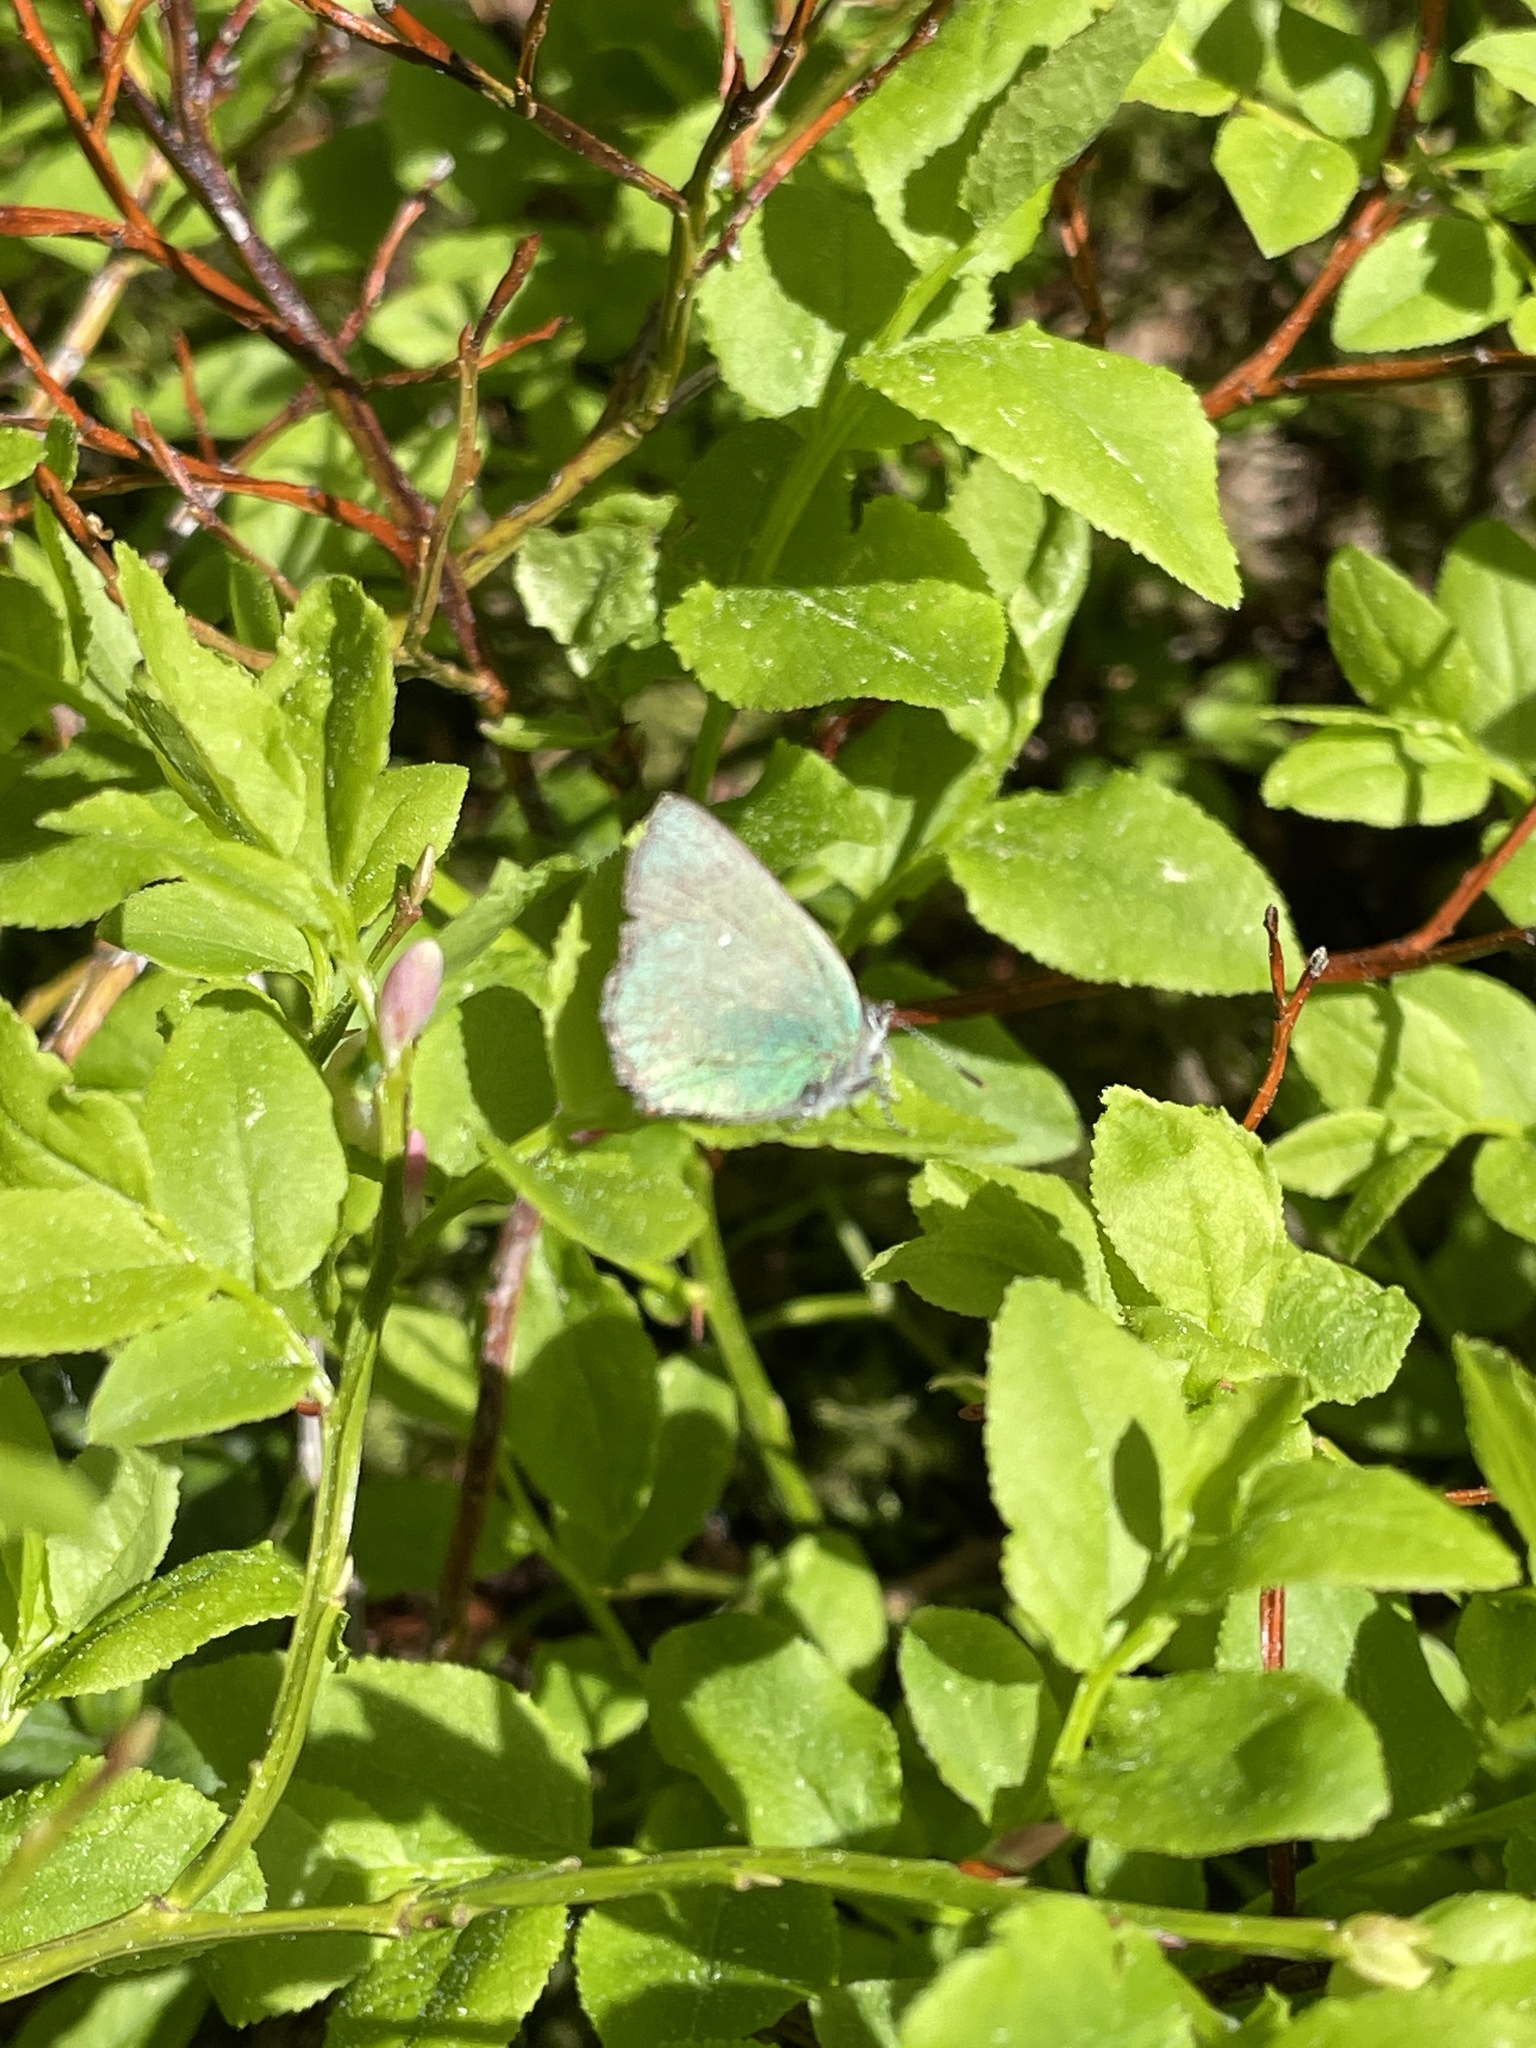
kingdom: Animalia
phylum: Arthropoda
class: Insecta
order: Lepidoptera
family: Lycaenidae
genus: Callophrys
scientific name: Callophrys rubi
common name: Green hairstreak
